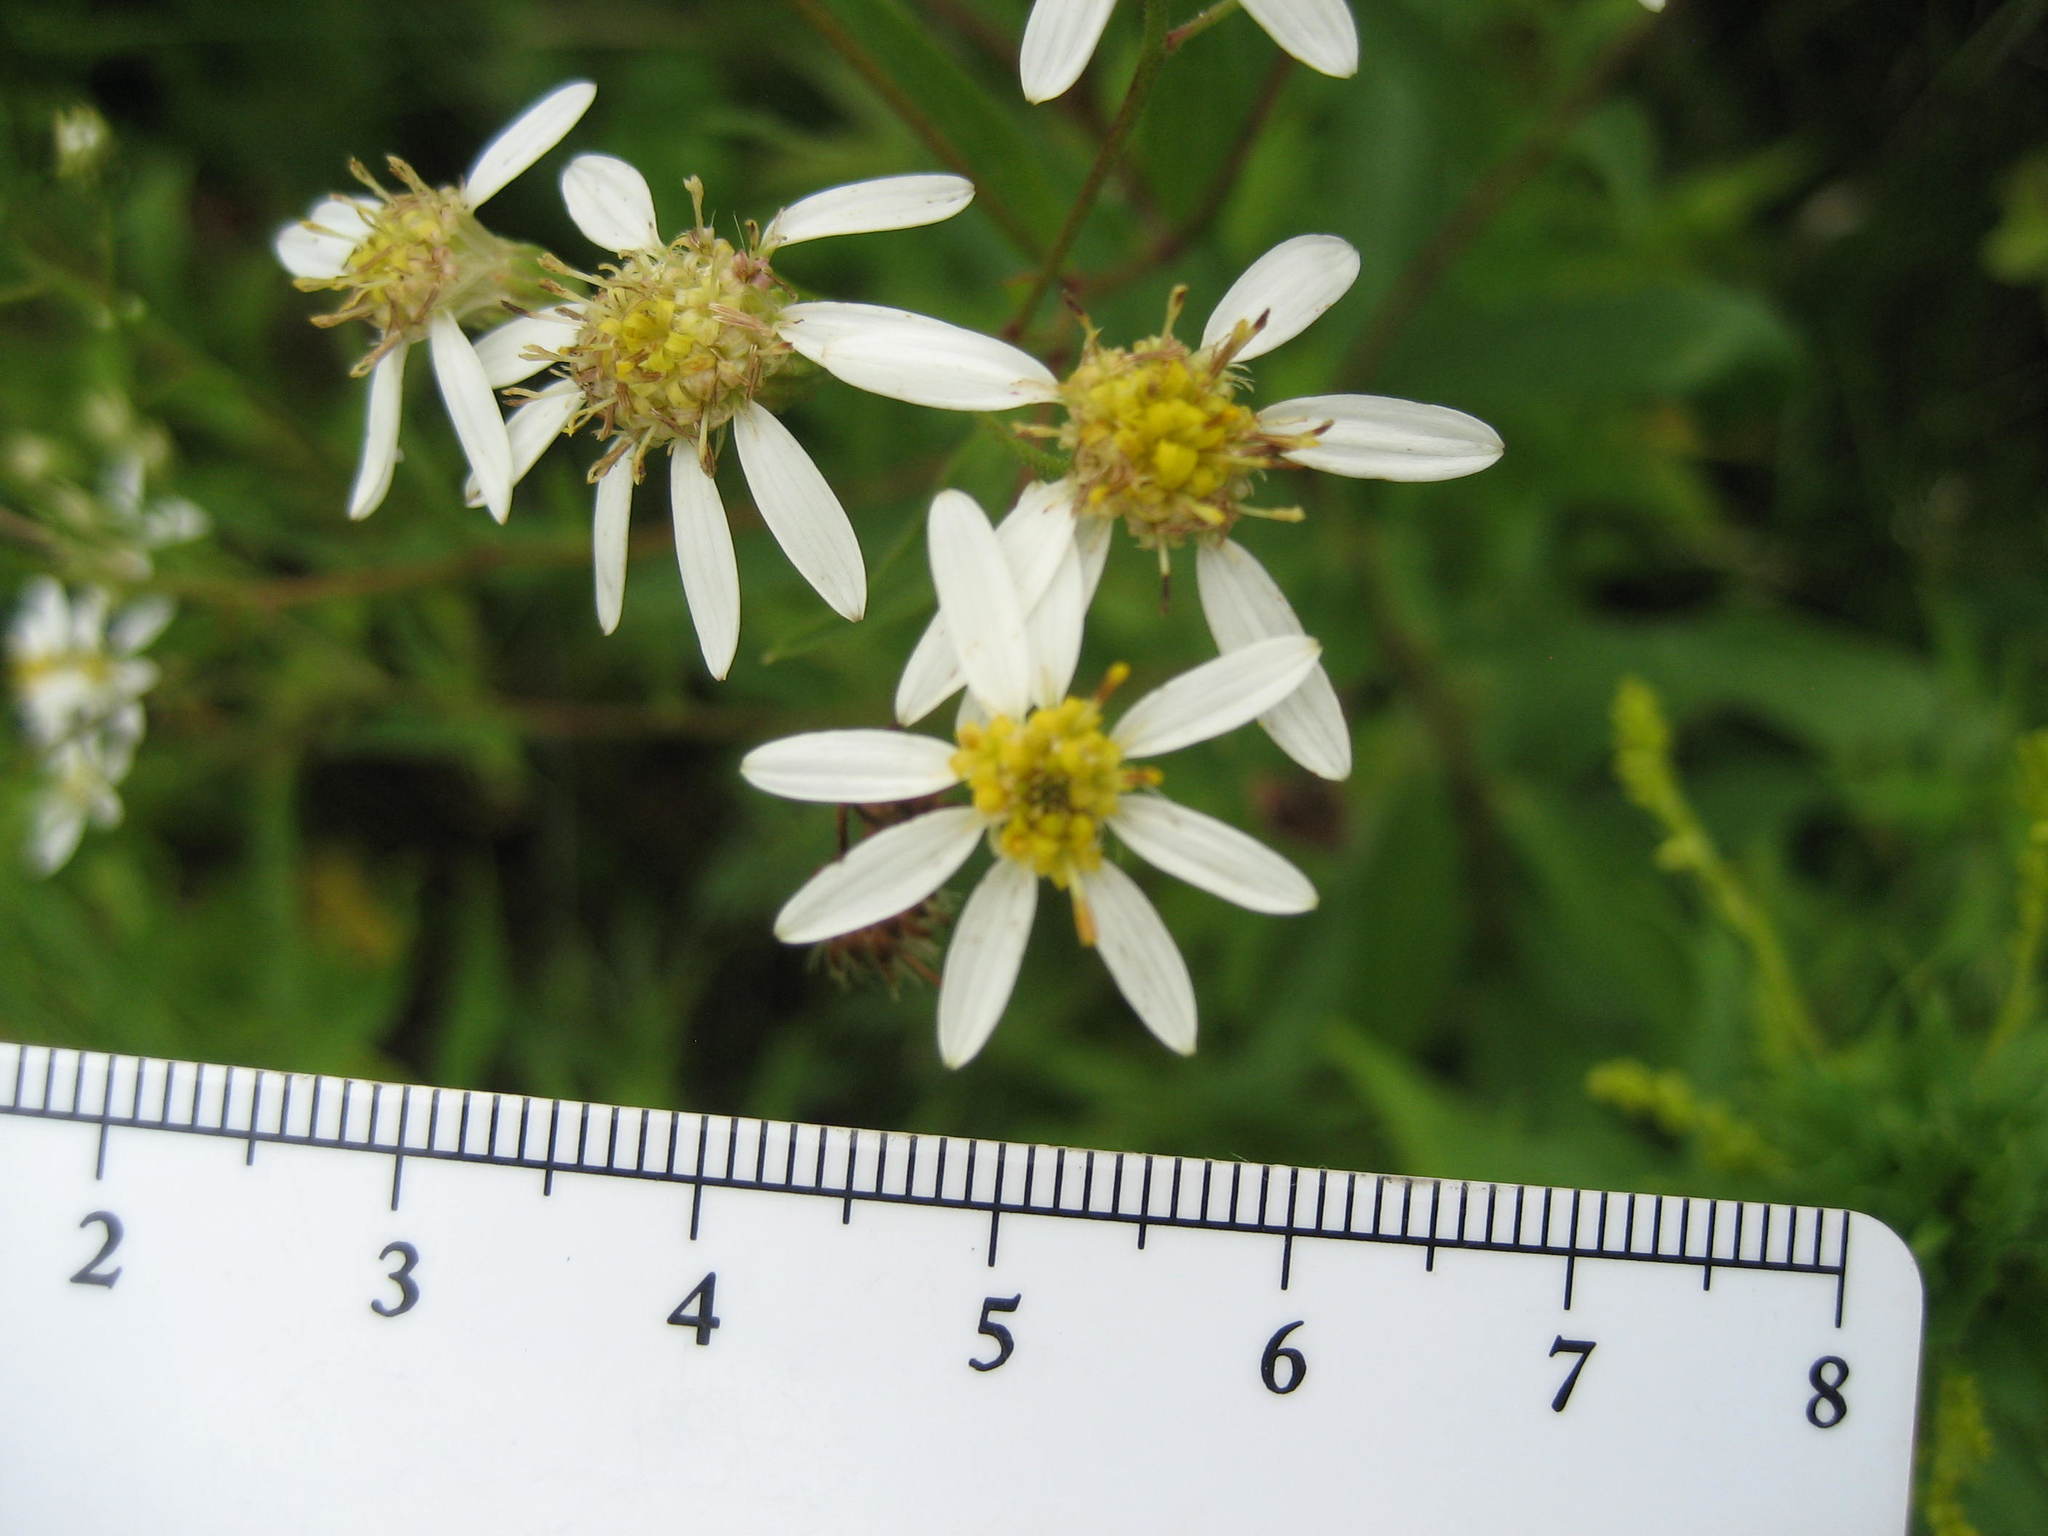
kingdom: Plantae
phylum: Tracheophyta
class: Magnoliopsida
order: Asterales
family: Asteraceae
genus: Doellingeria
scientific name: Doellingeria umbellata
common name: Flat-top white aster
